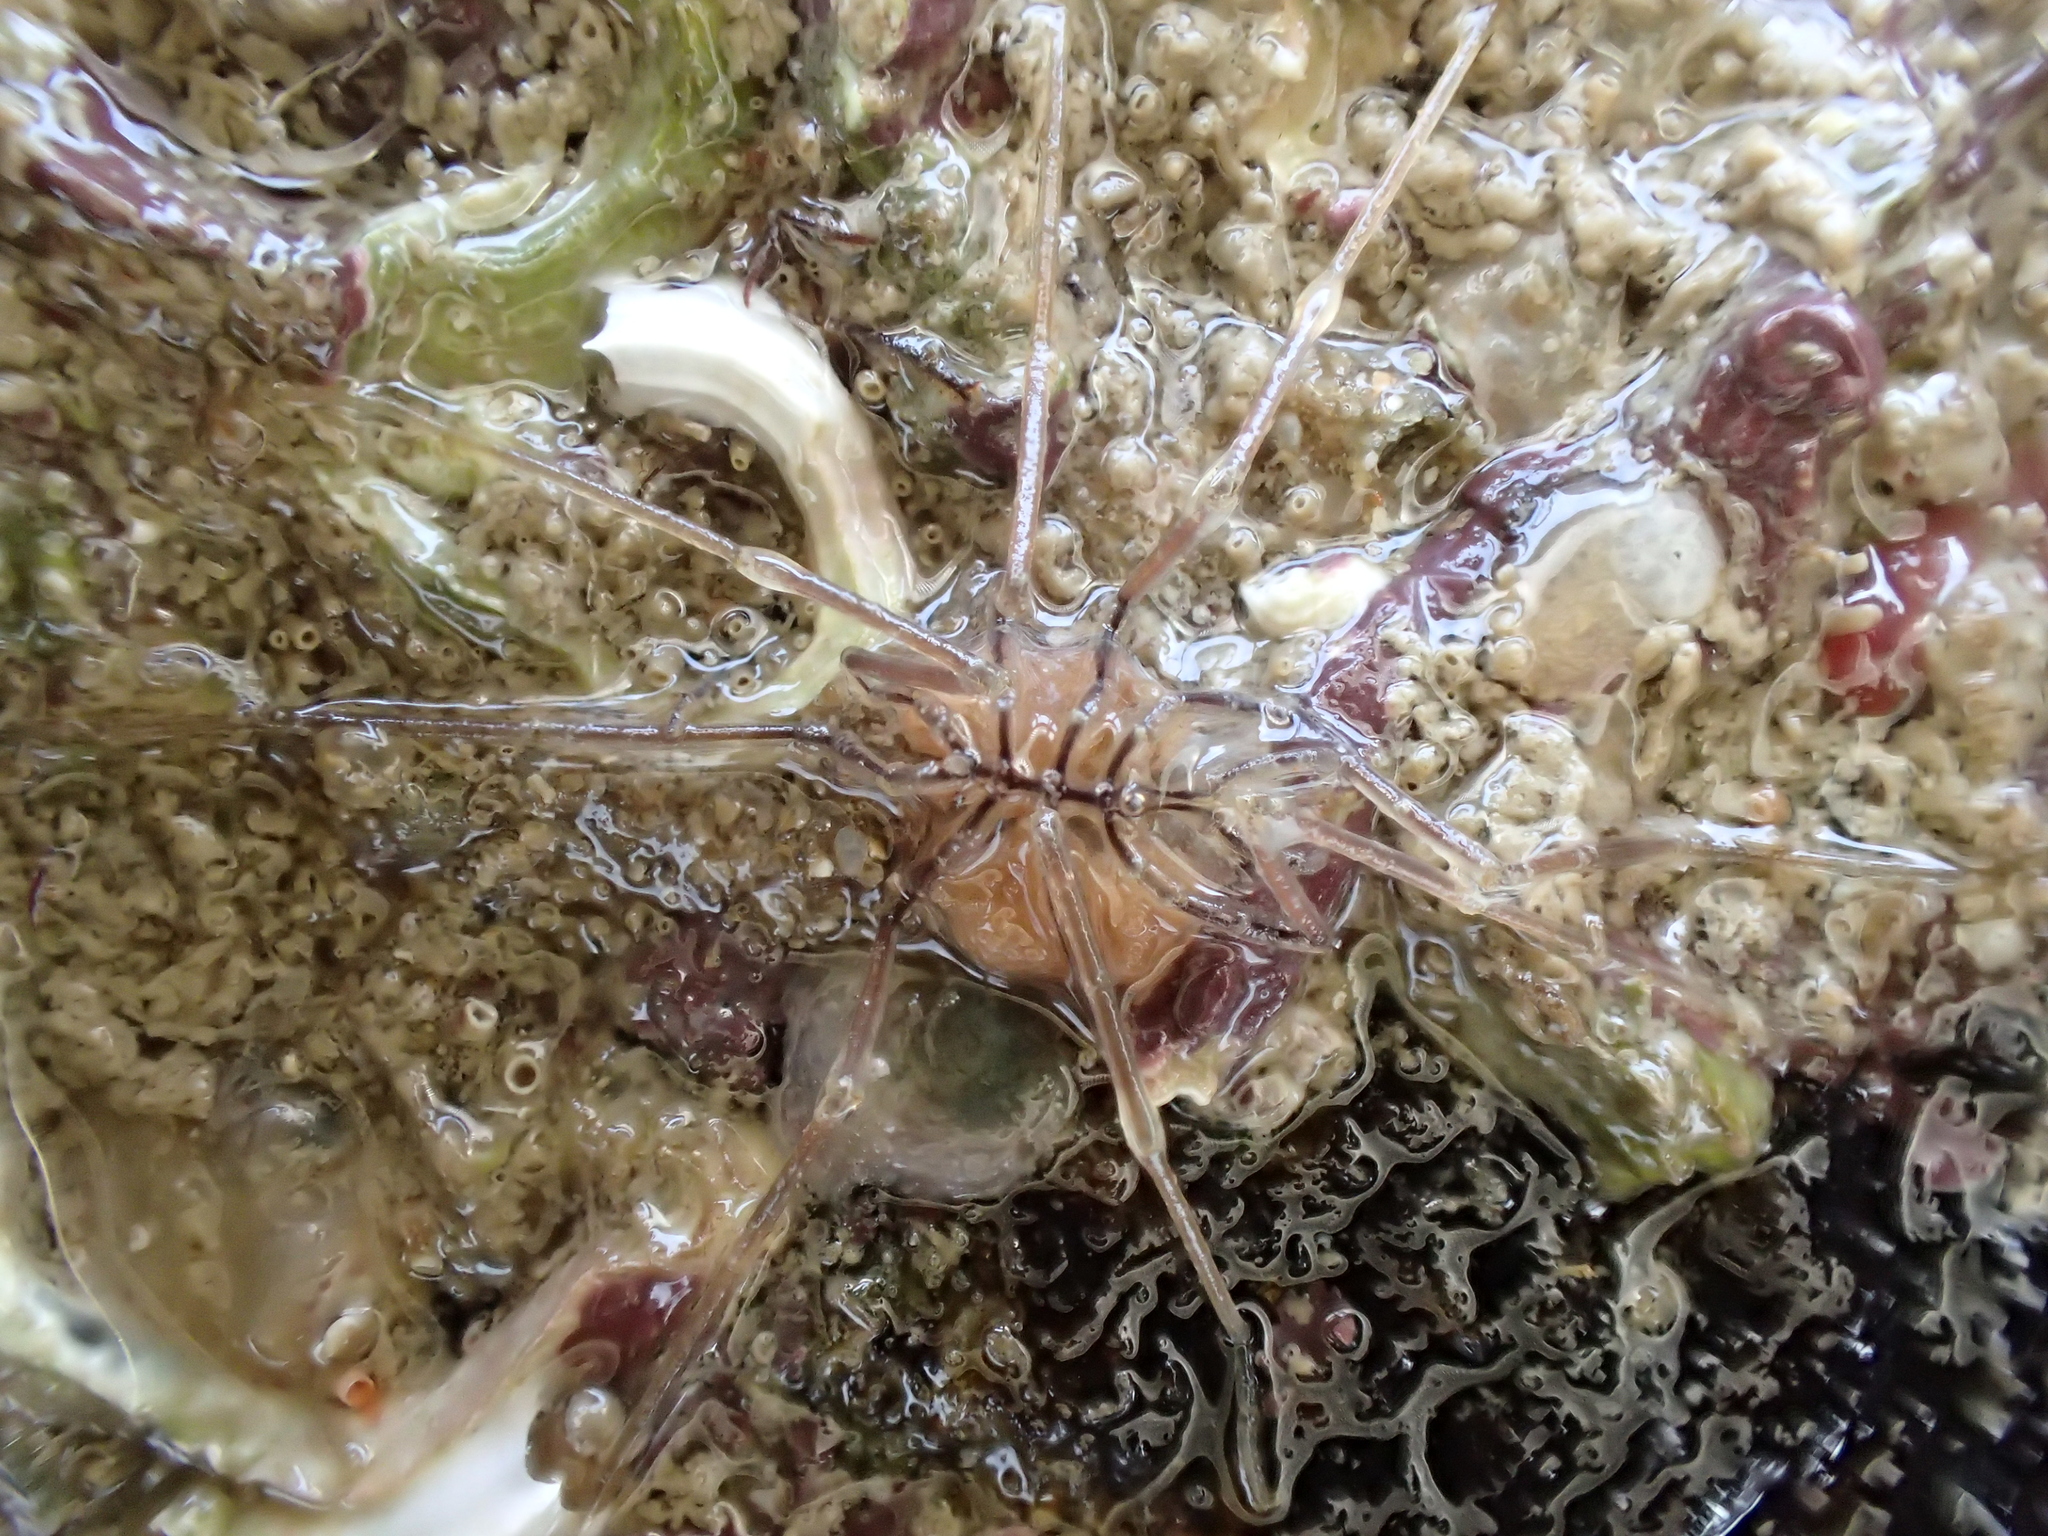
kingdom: Animalia
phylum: Arthropoda
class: Pycnogonida
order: Pantopoda
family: Nymphonidae
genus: Nymphon
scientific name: Nymphon gracile
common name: Gangly lancer
